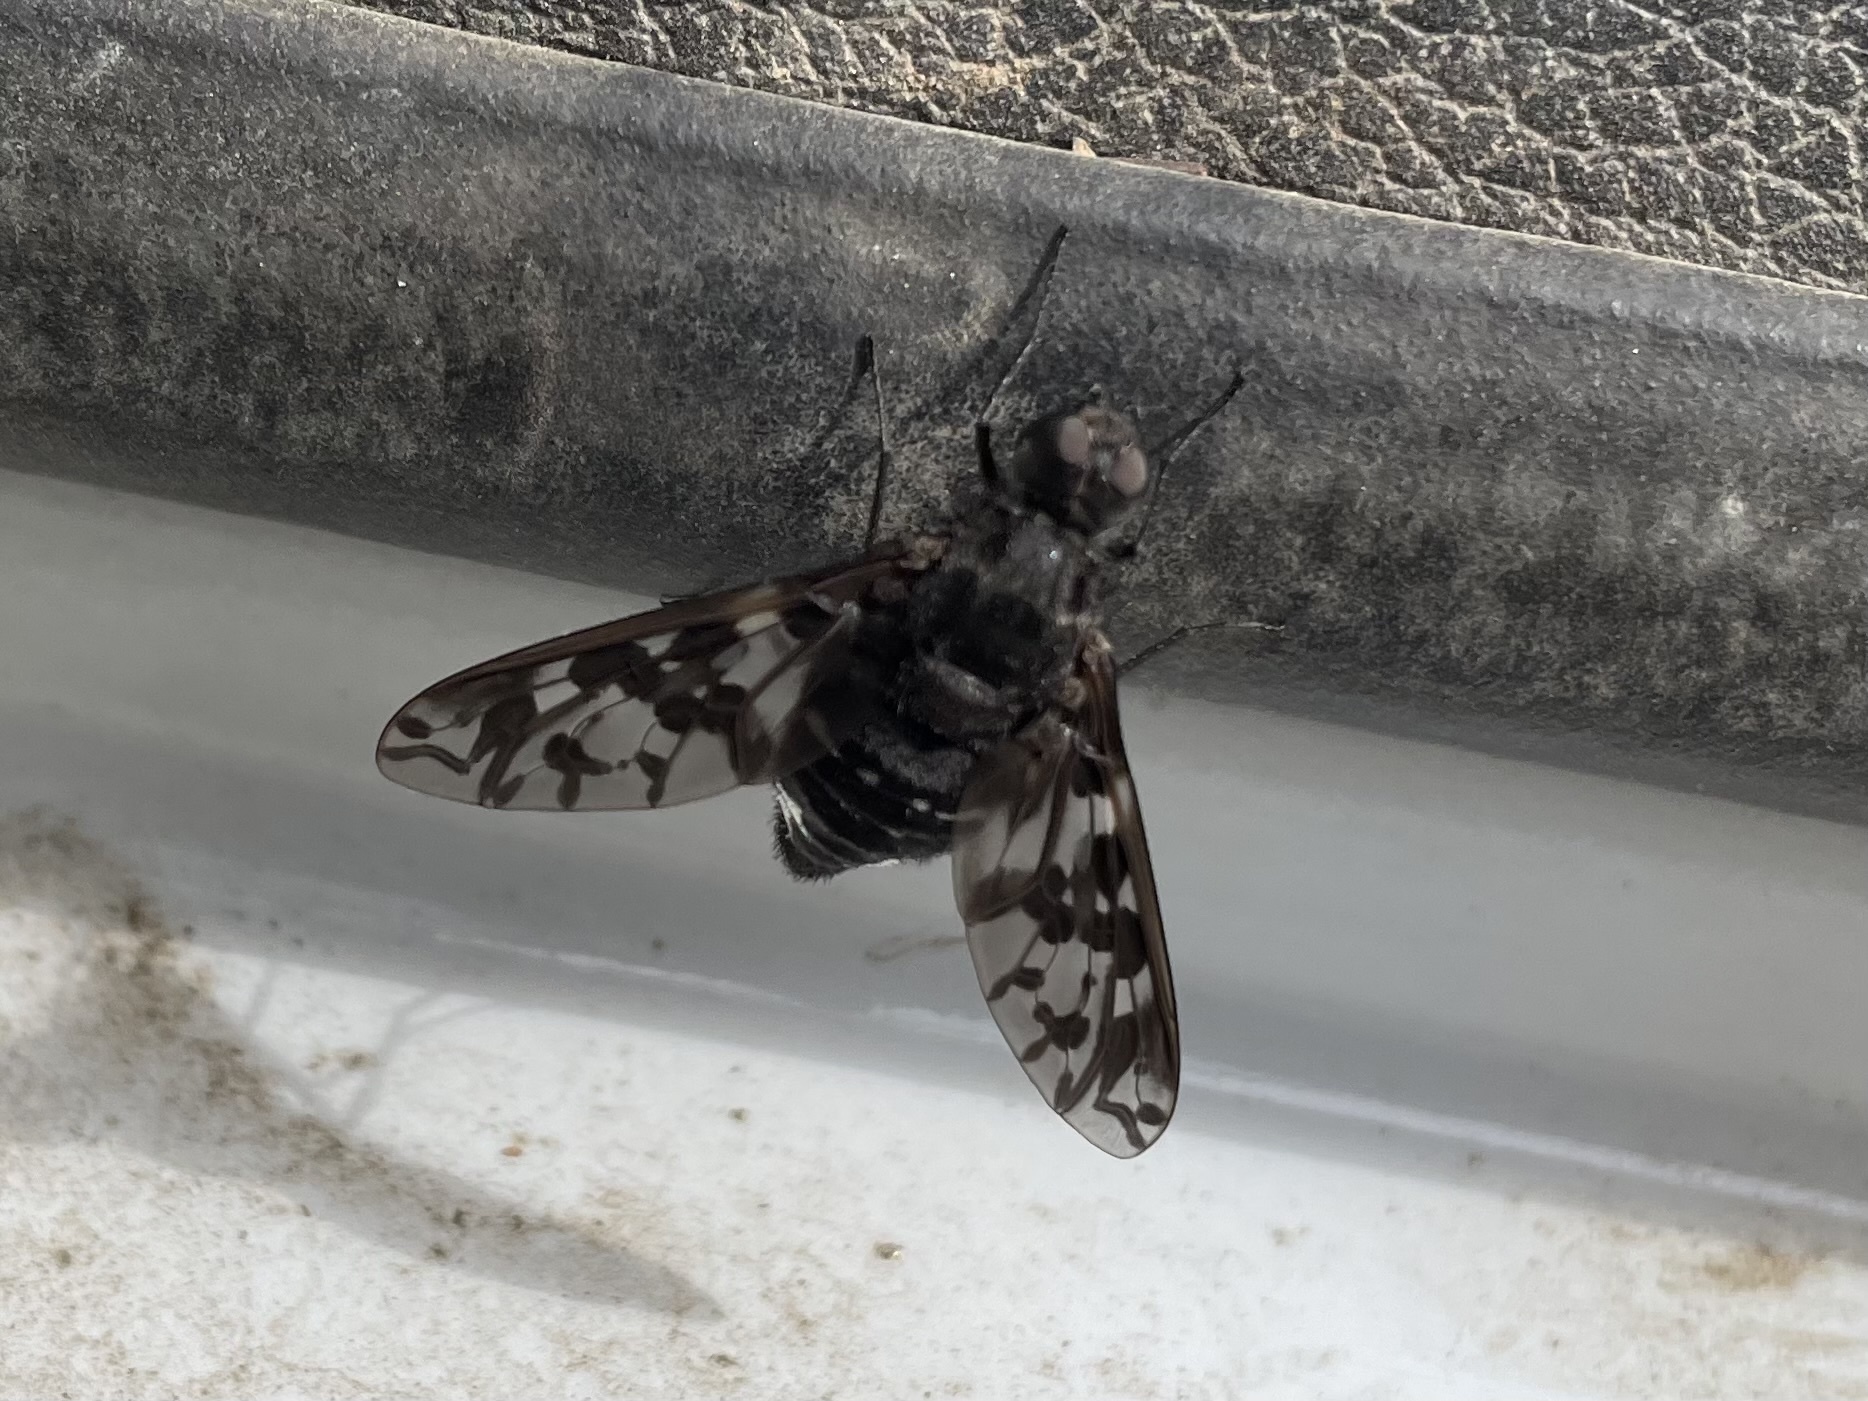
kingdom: Animalia
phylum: Arthropoda
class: Insecta
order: Diptera
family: Bombyliidae
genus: Xenox
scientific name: Xenox delila
